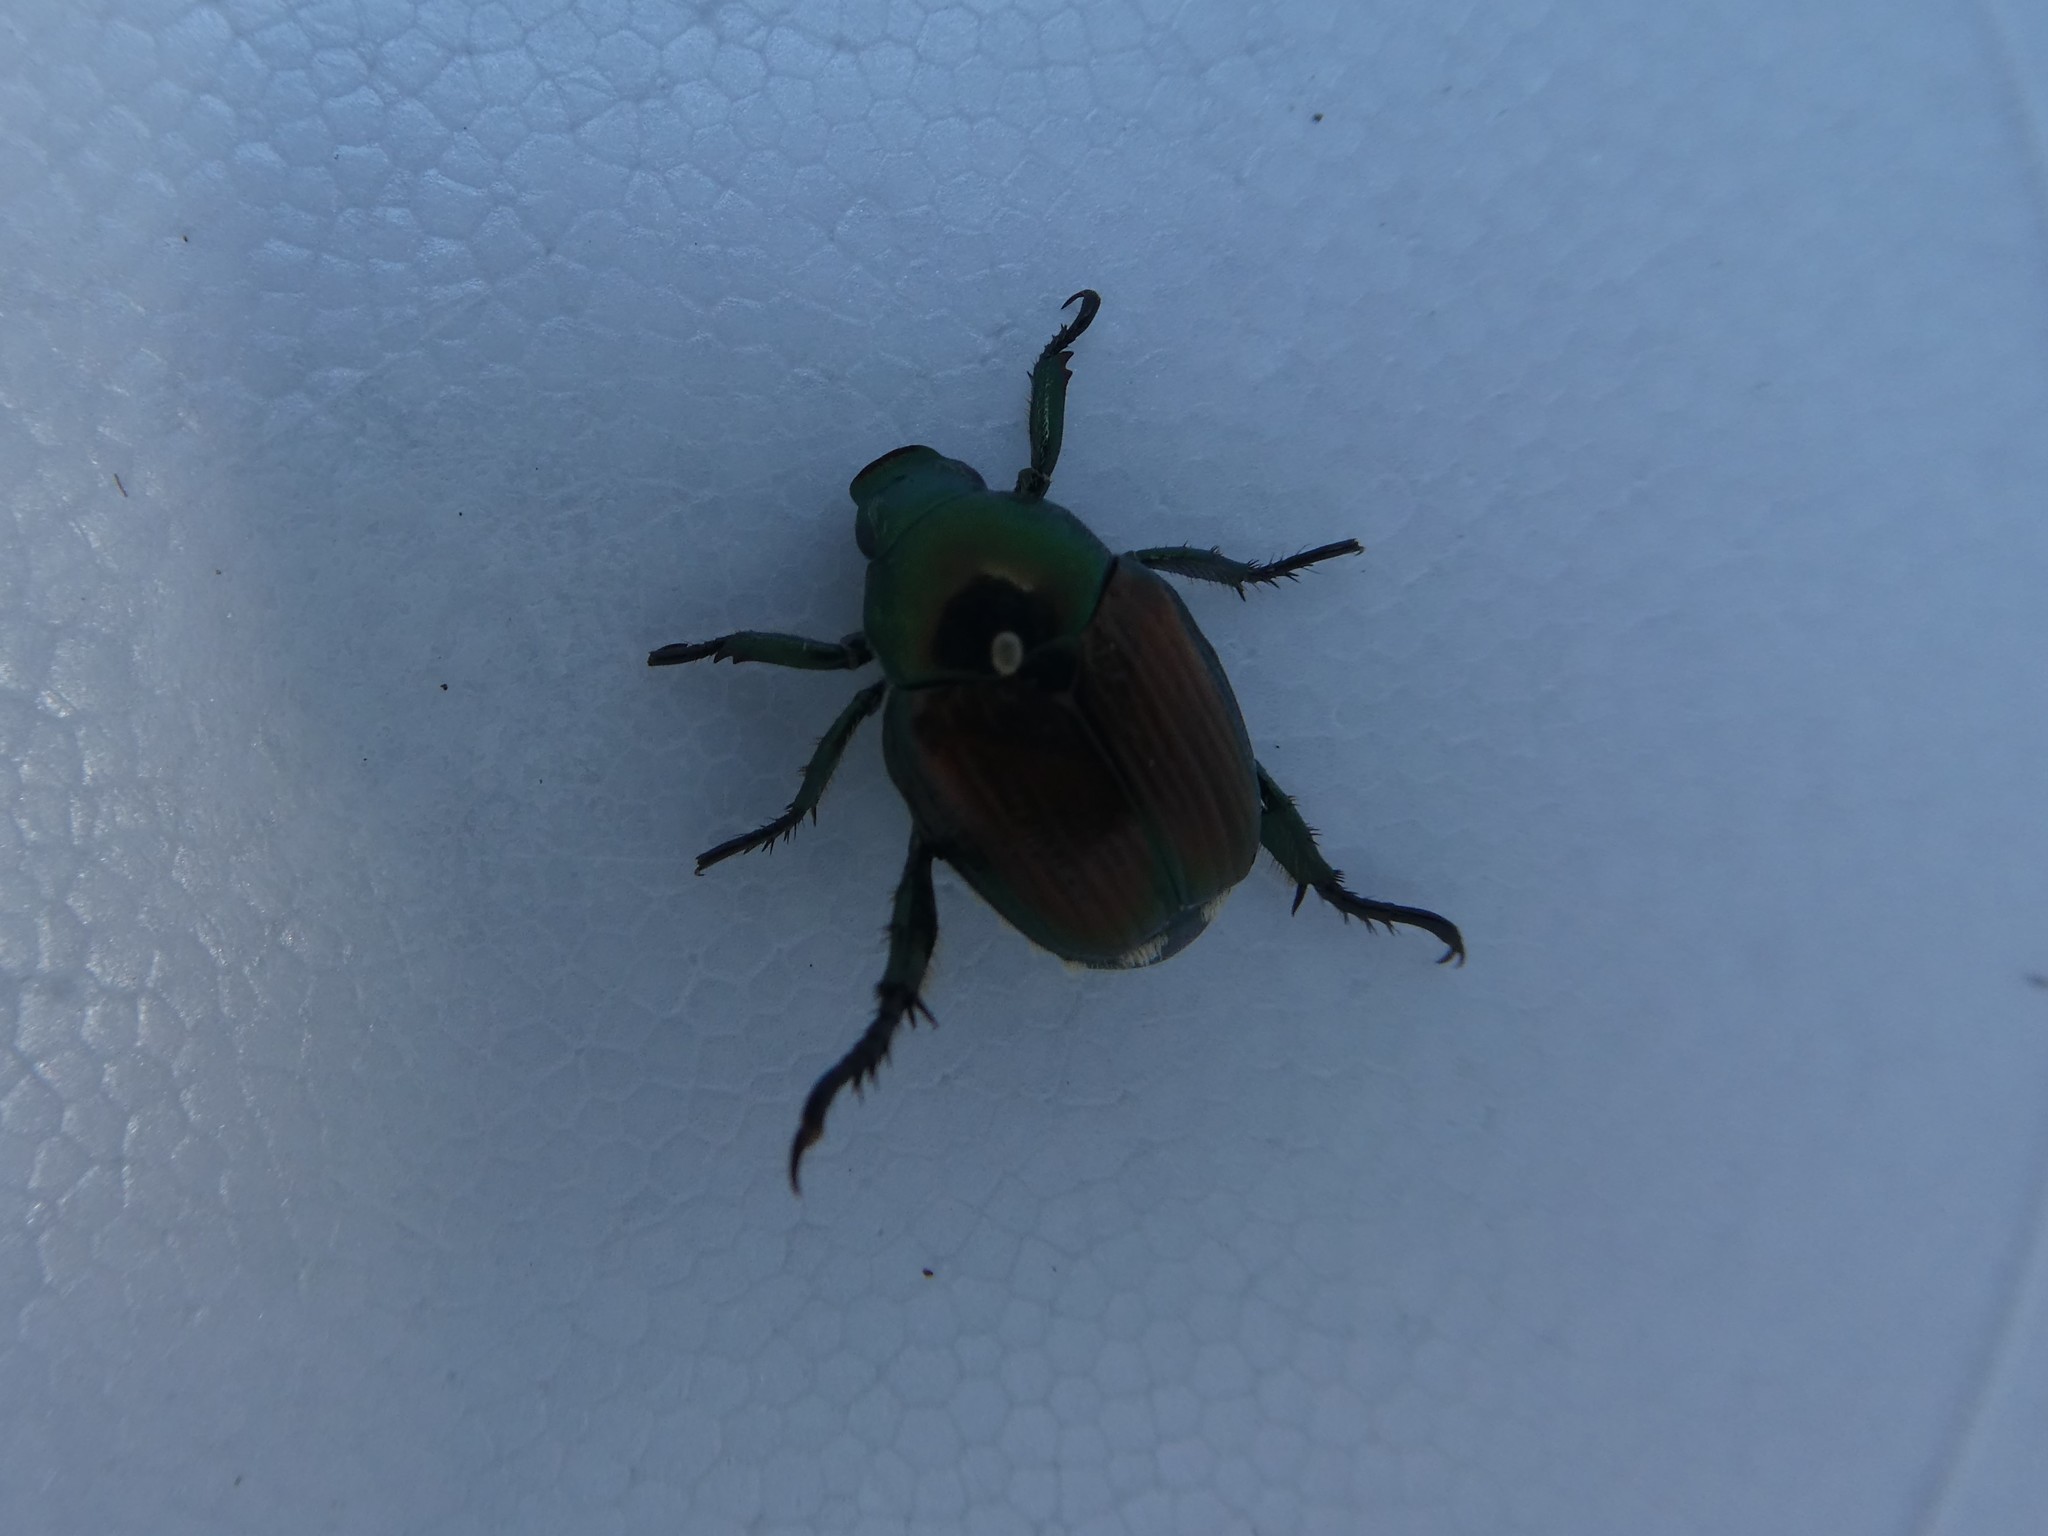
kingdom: Animalia
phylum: Arthropoda
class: Insecta
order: Coleoptera
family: Scarabaeidae
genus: Popillia
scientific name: Popillia japonica
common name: Japanese beetle
